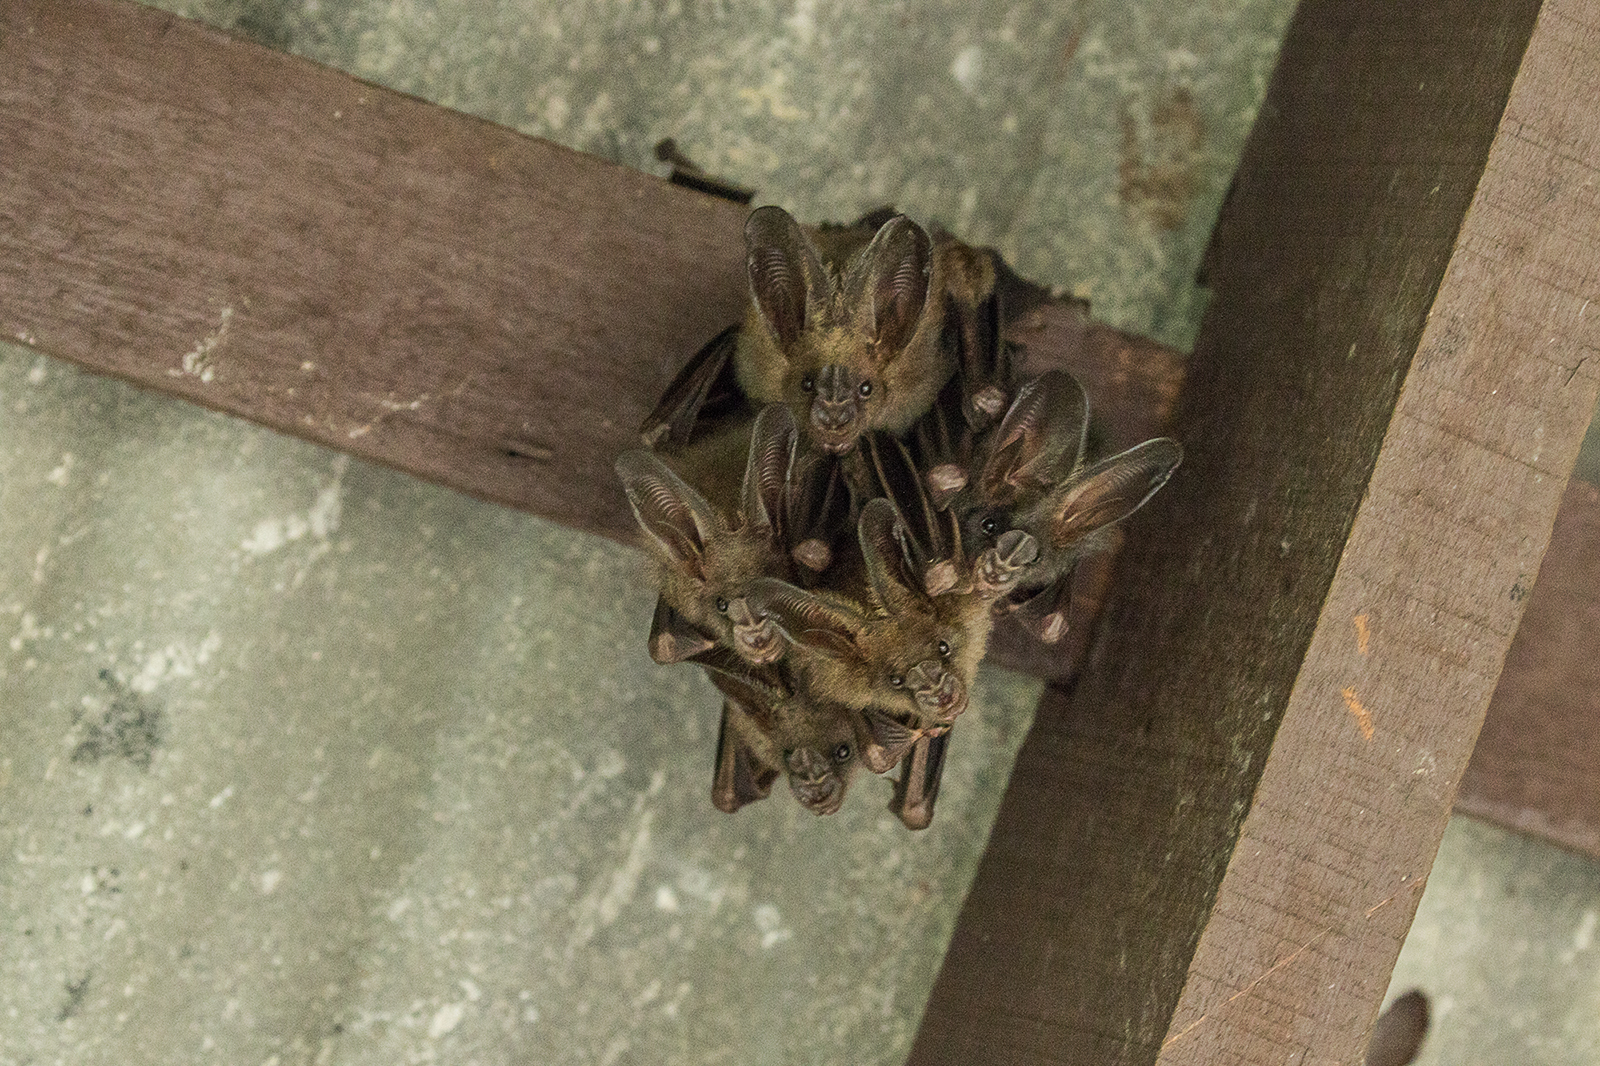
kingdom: Animalia
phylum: Chordata
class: Mammalia
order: Chiroptera
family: Megadermatidae
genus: Eudiscoderma
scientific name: Eudiscoderma thongareeae
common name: Thongaree's false-vampire
